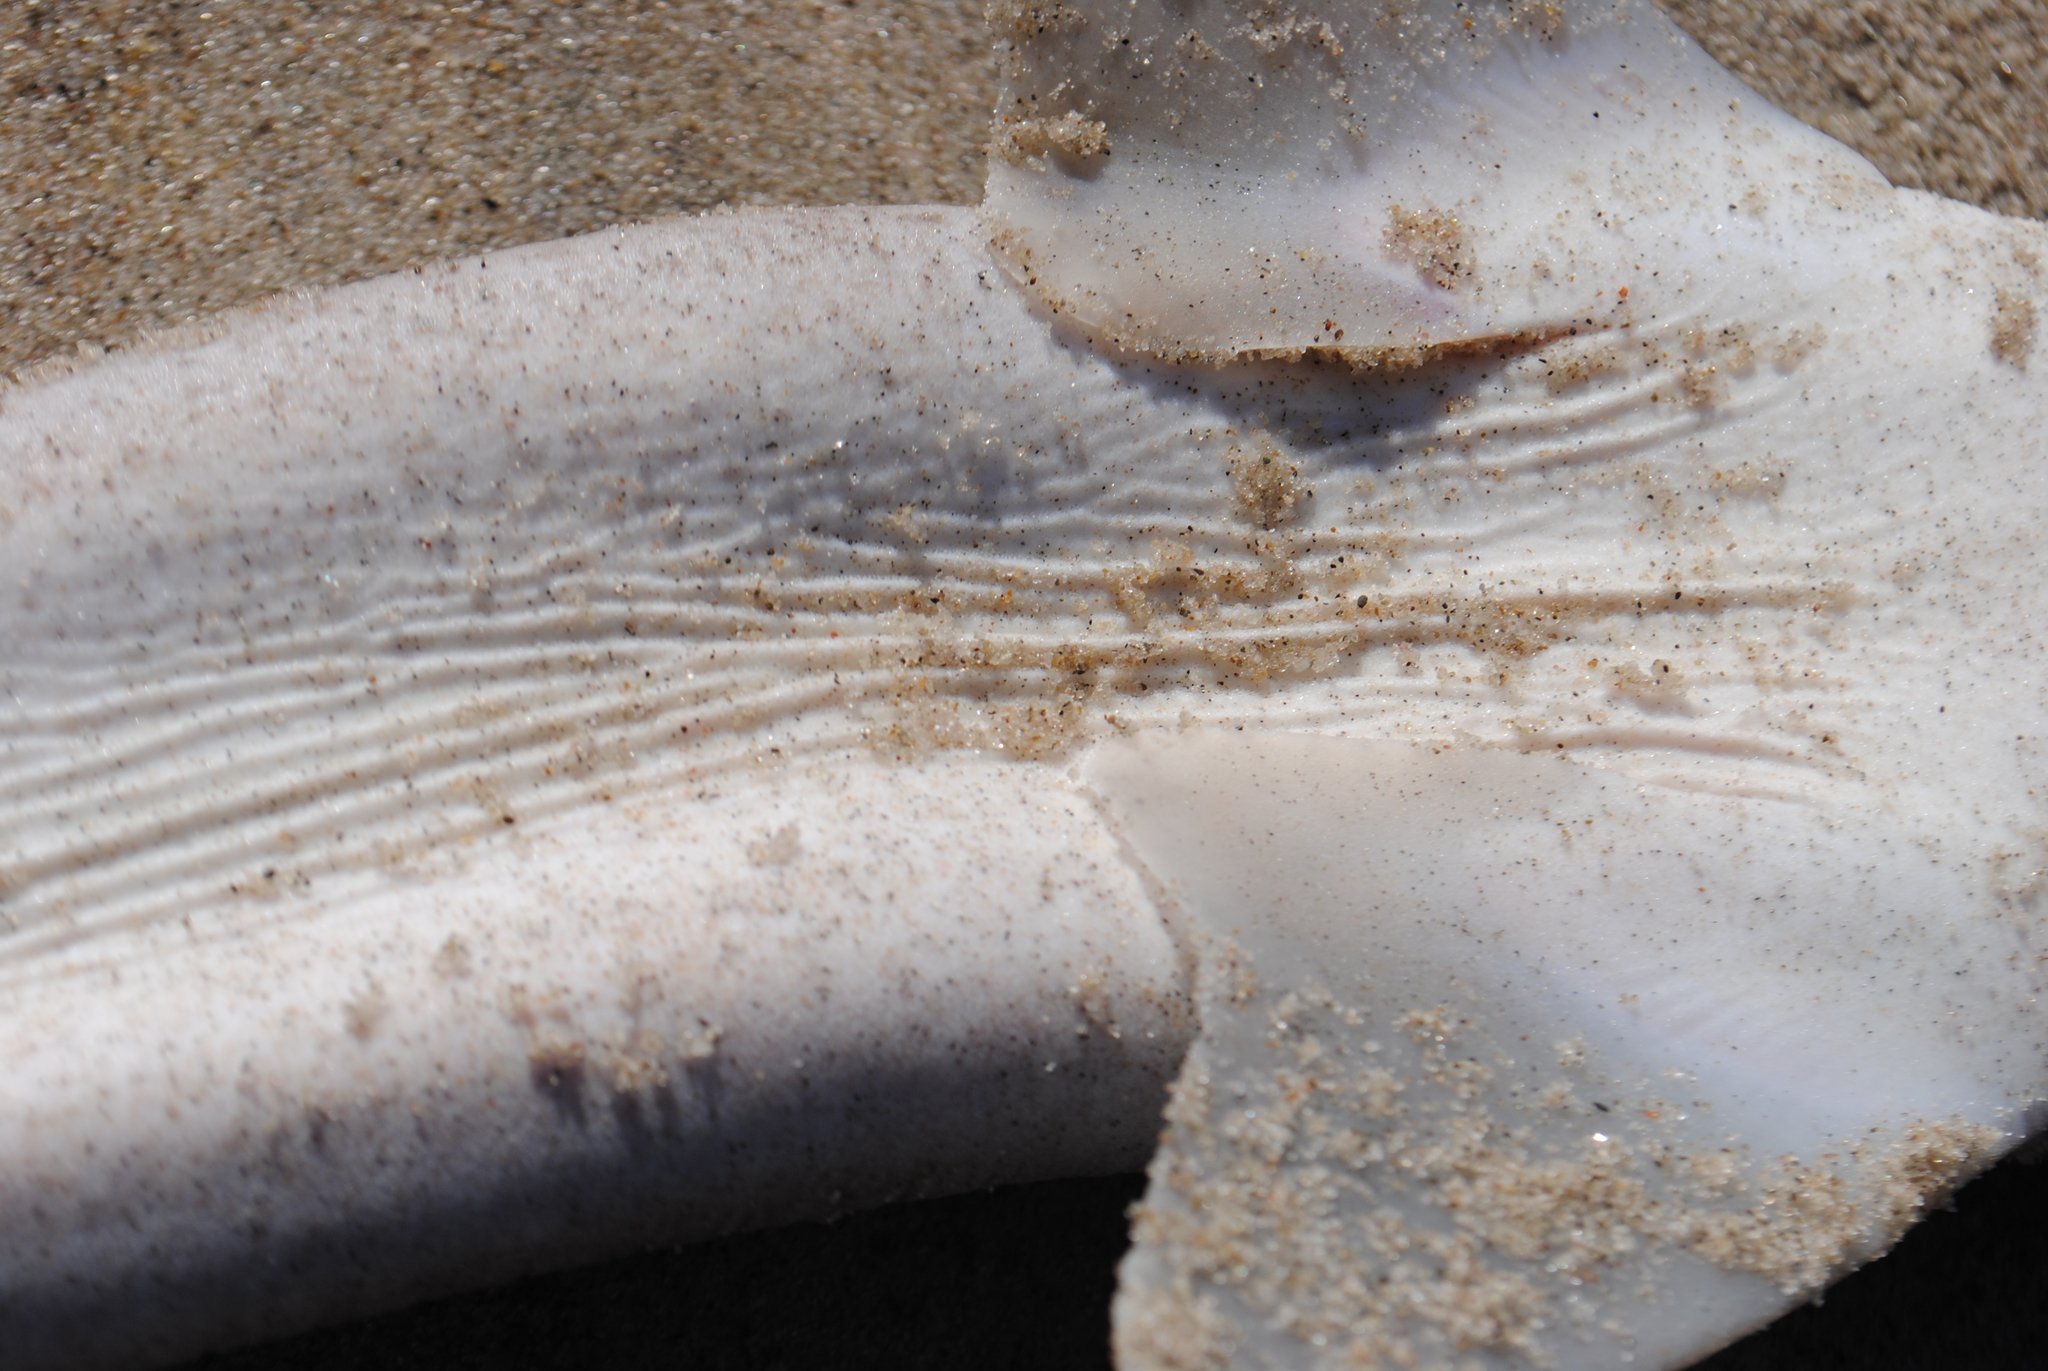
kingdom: Animalia
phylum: Chordata
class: Elasmobranchii
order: Squaliformes
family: Squalidae
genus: Squalus
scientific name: Squalus acanthias
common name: Spurdog
